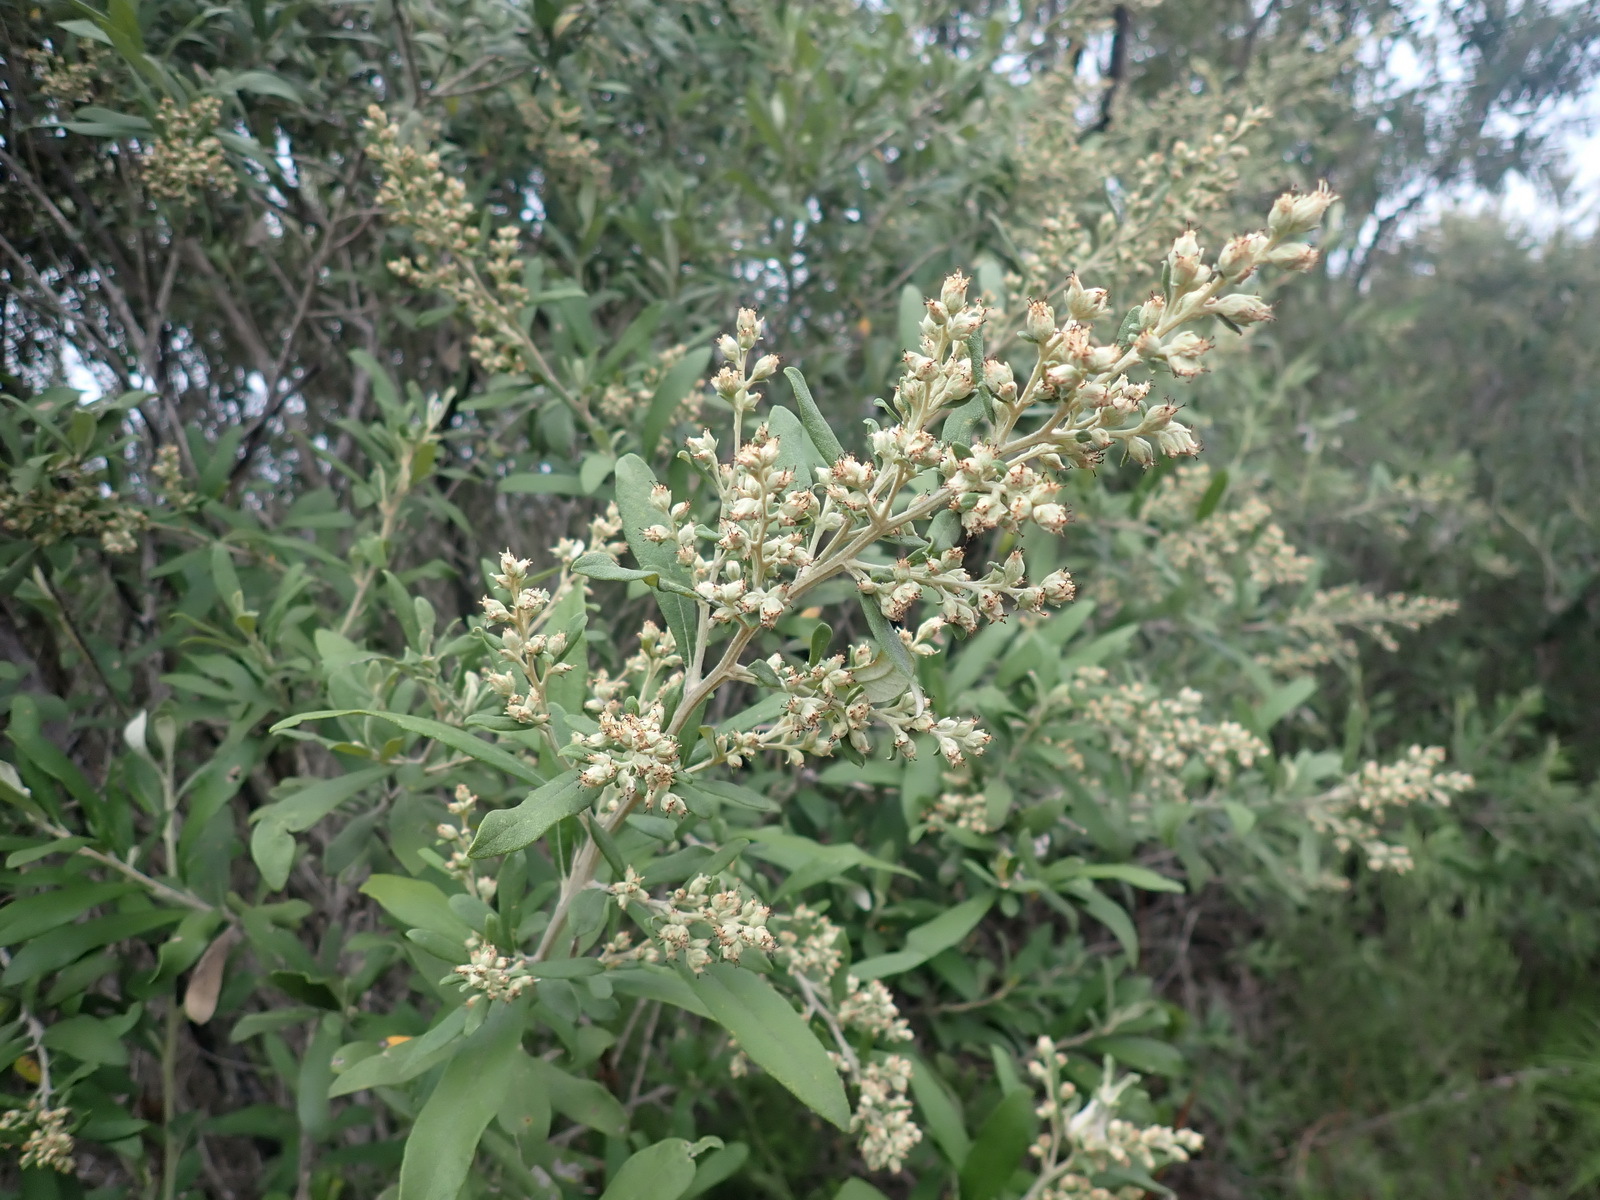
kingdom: Plantae
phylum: Tracheophyta
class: Magnoliopsida
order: Asterales
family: Asteraceae
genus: Tarchonanthus
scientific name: Tarchonanthus littoralis
